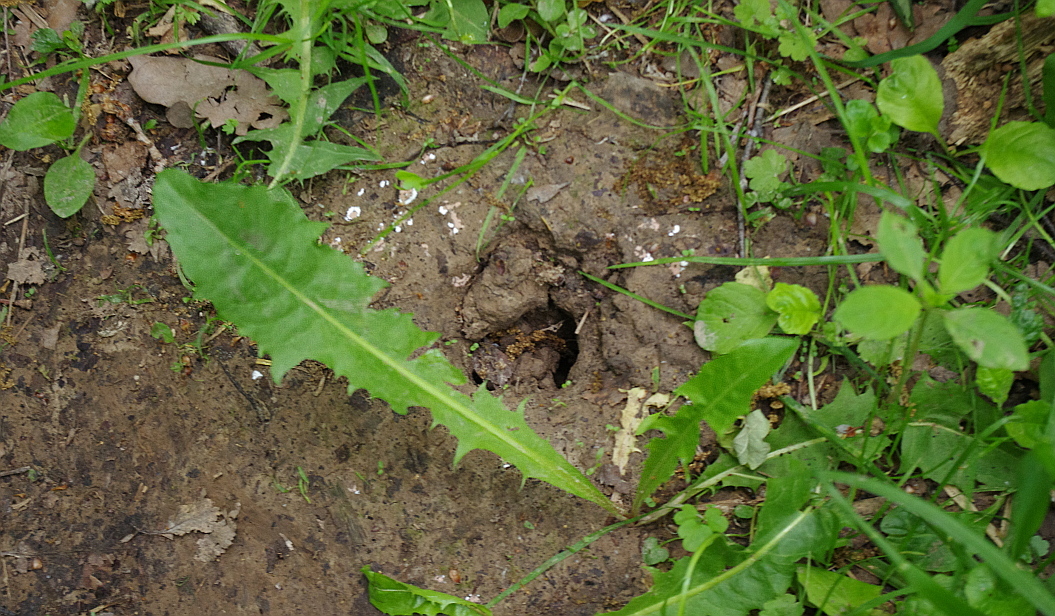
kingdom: Animalia
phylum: Chordata
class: Mammalia
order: Soricomorpha
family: Talpidae
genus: Talpa
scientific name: Talpa europaea
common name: European mole
